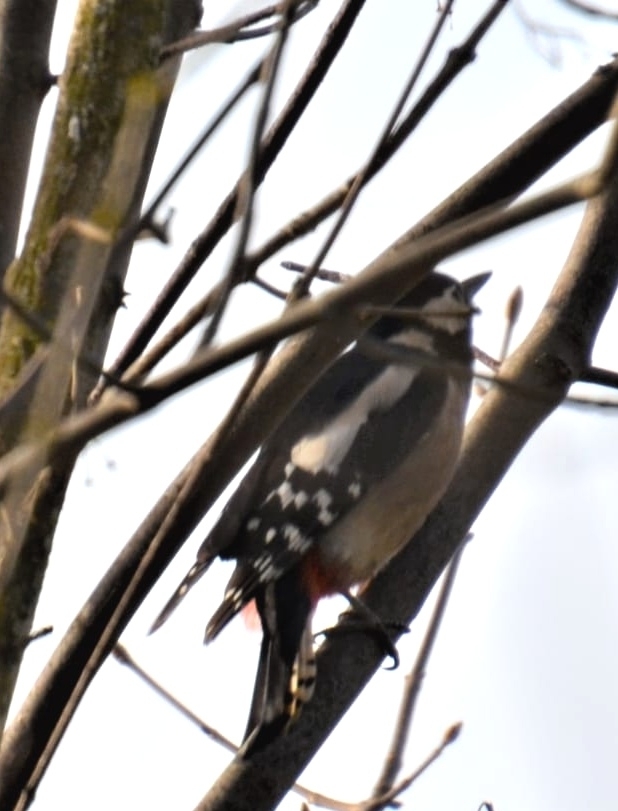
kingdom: Animalia
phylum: Chordata
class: Aves
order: Piciformes
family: Picidae
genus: Dendrocopos
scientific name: Dendrocopos major
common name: Great spotted woodpecker
